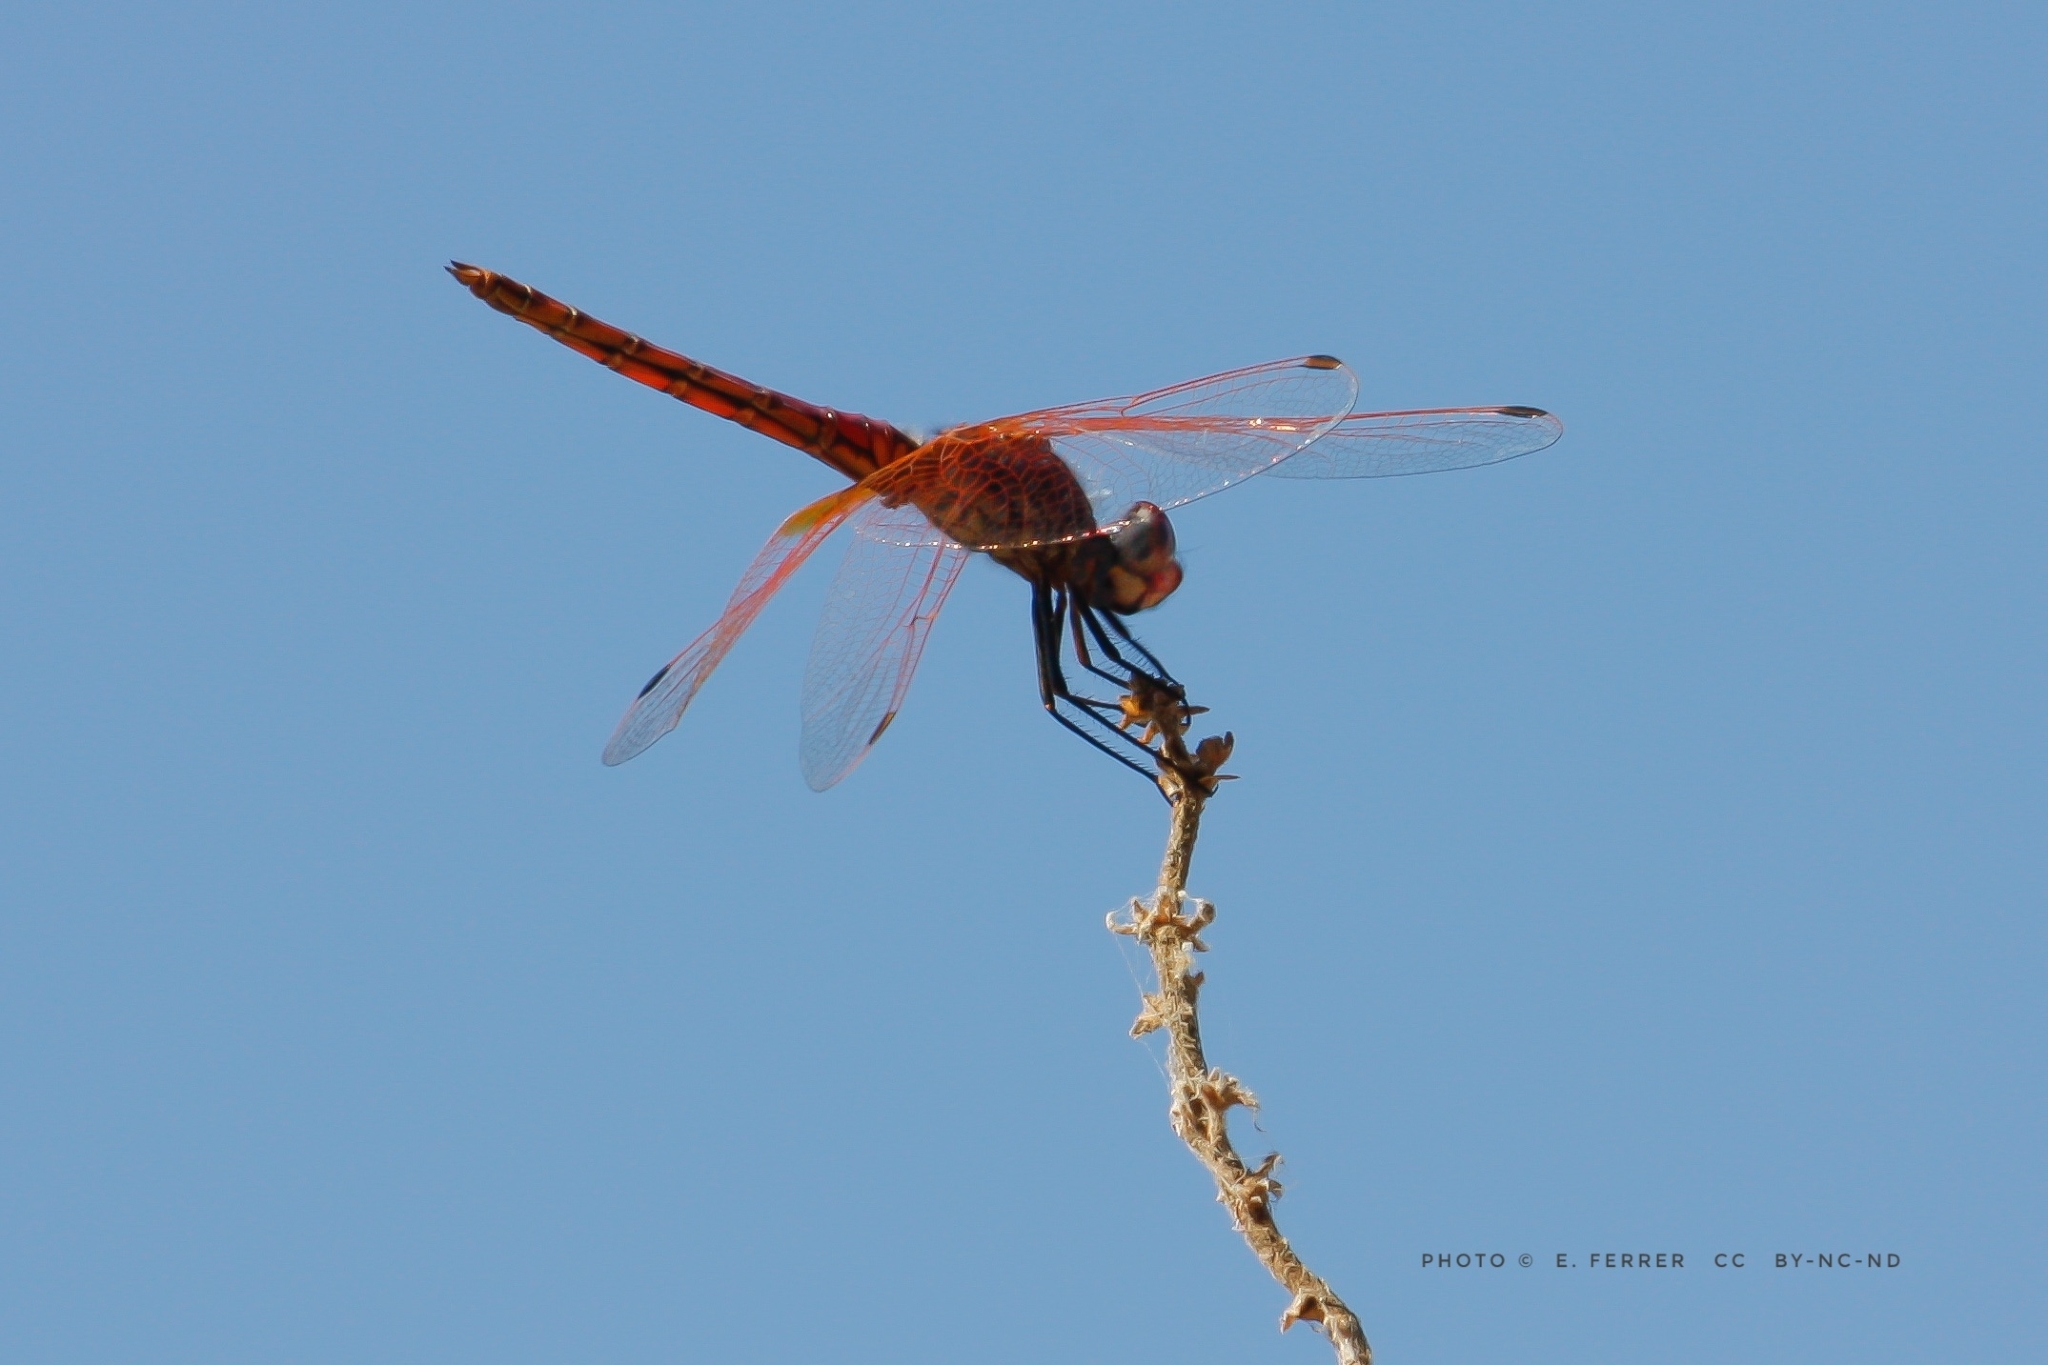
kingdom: Animalia
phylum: Arthropoda
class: Insecta
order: Odonata
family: Libellulidae
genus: Sympetrum
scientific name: Sympetrum fonscolombii
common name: Red-veined darter
